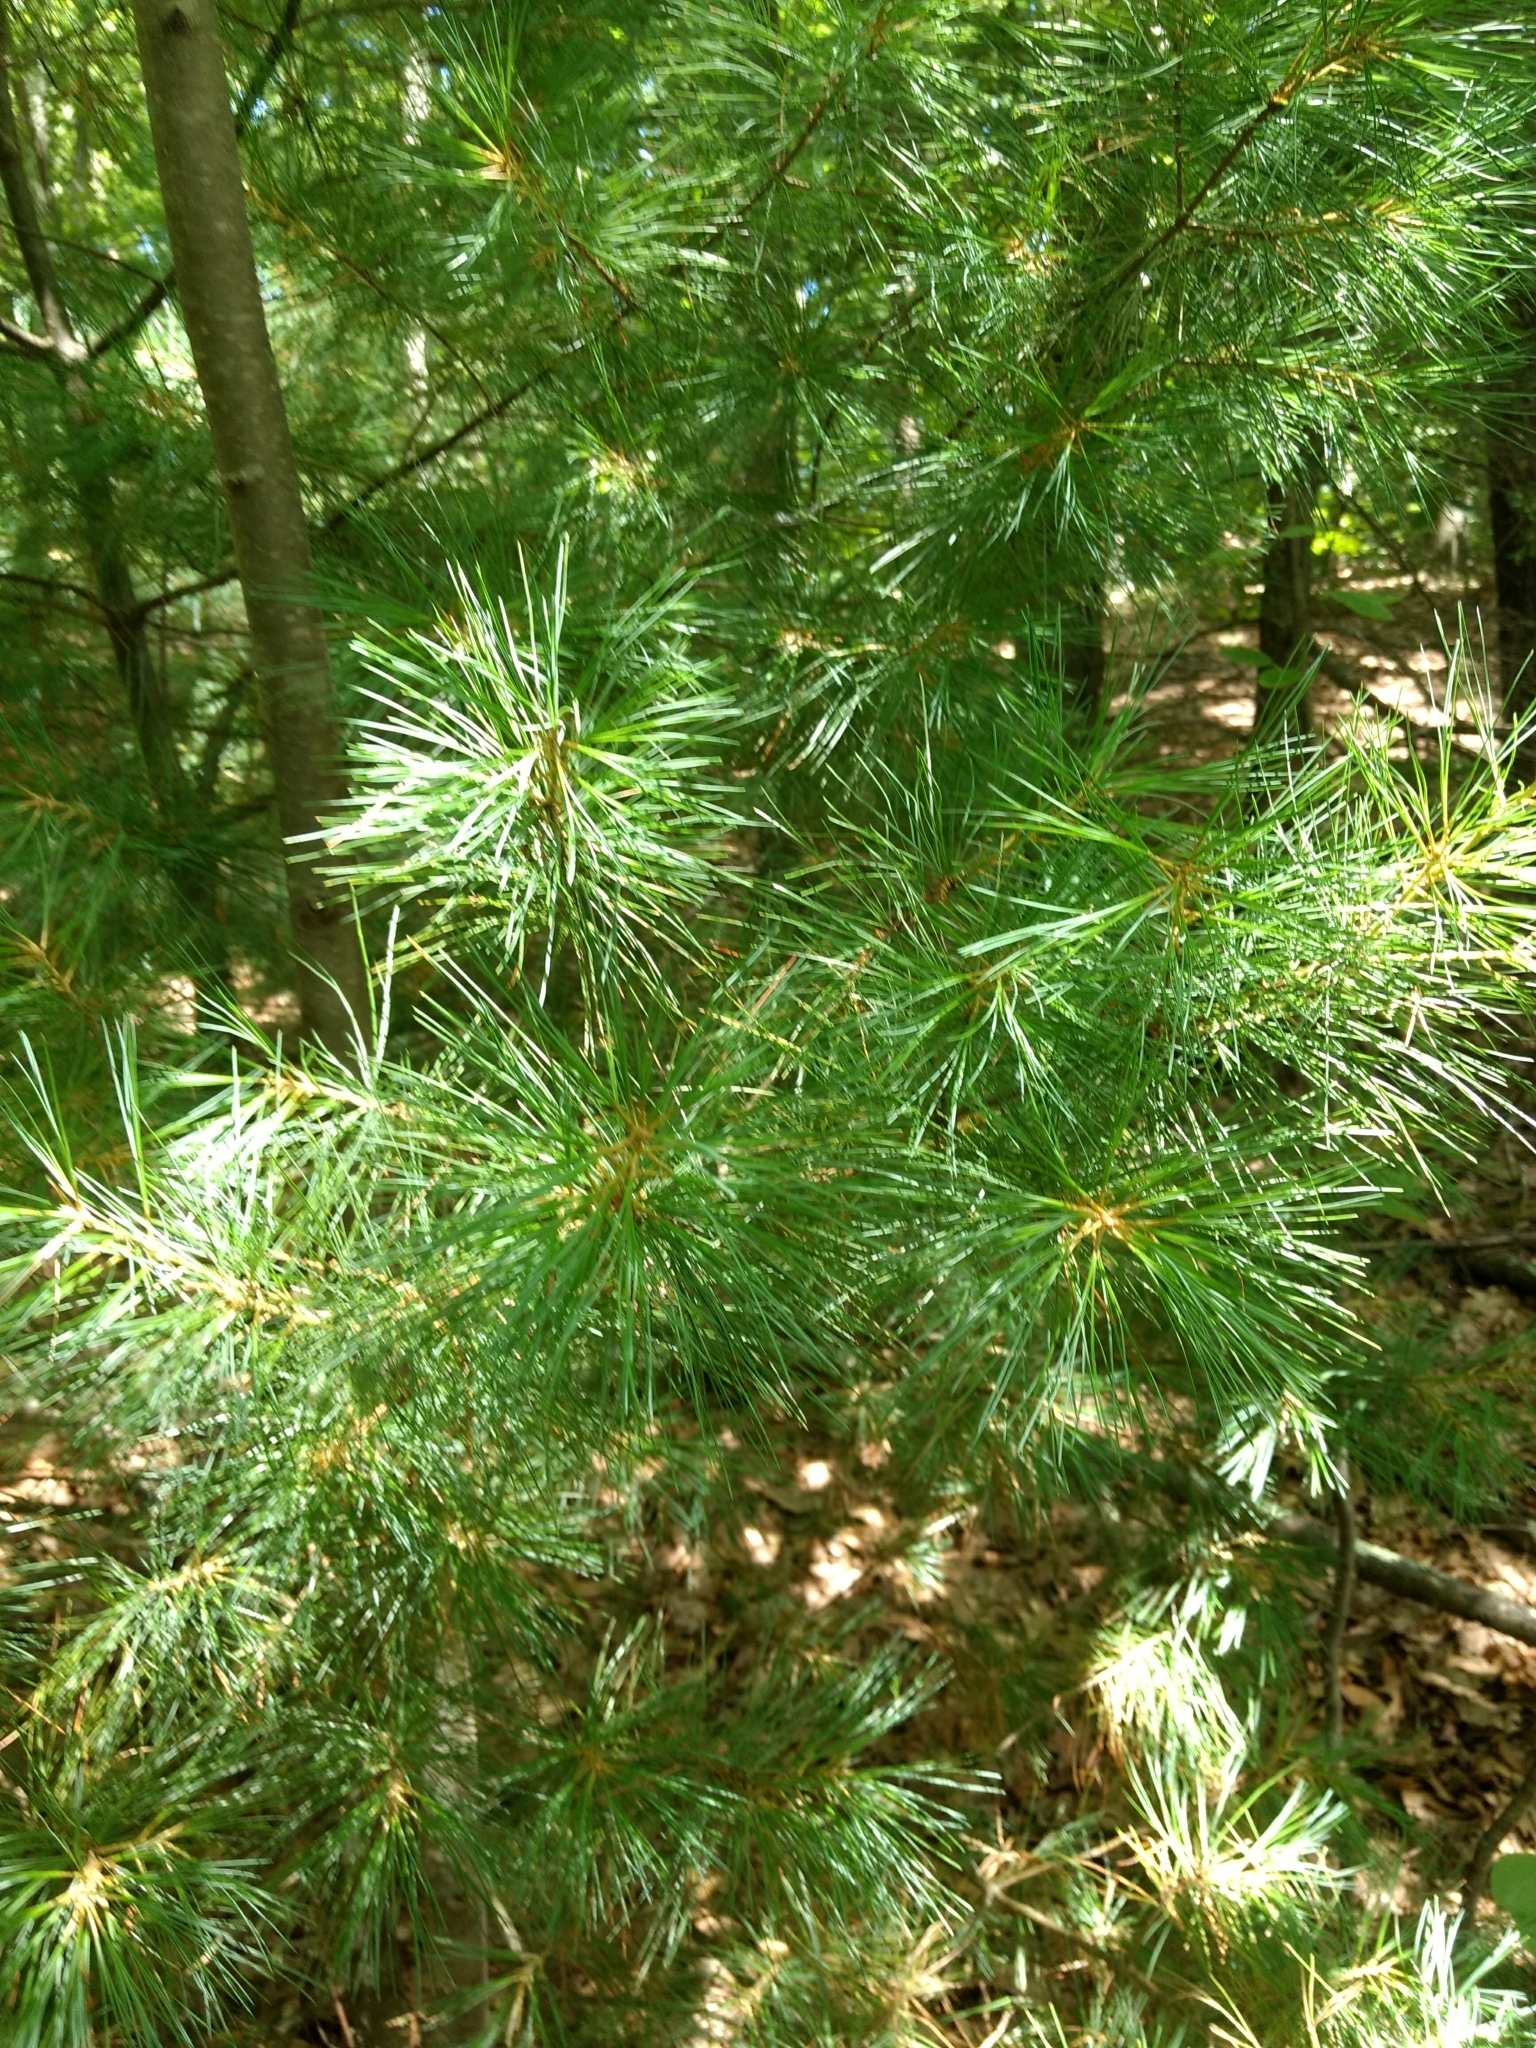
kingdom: Plantae
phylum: Tracheophyta
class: Pinopsida
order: Pinales
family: Pinaceae
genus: Pinus
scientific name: Pinus strobus
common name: Weymouth pine
